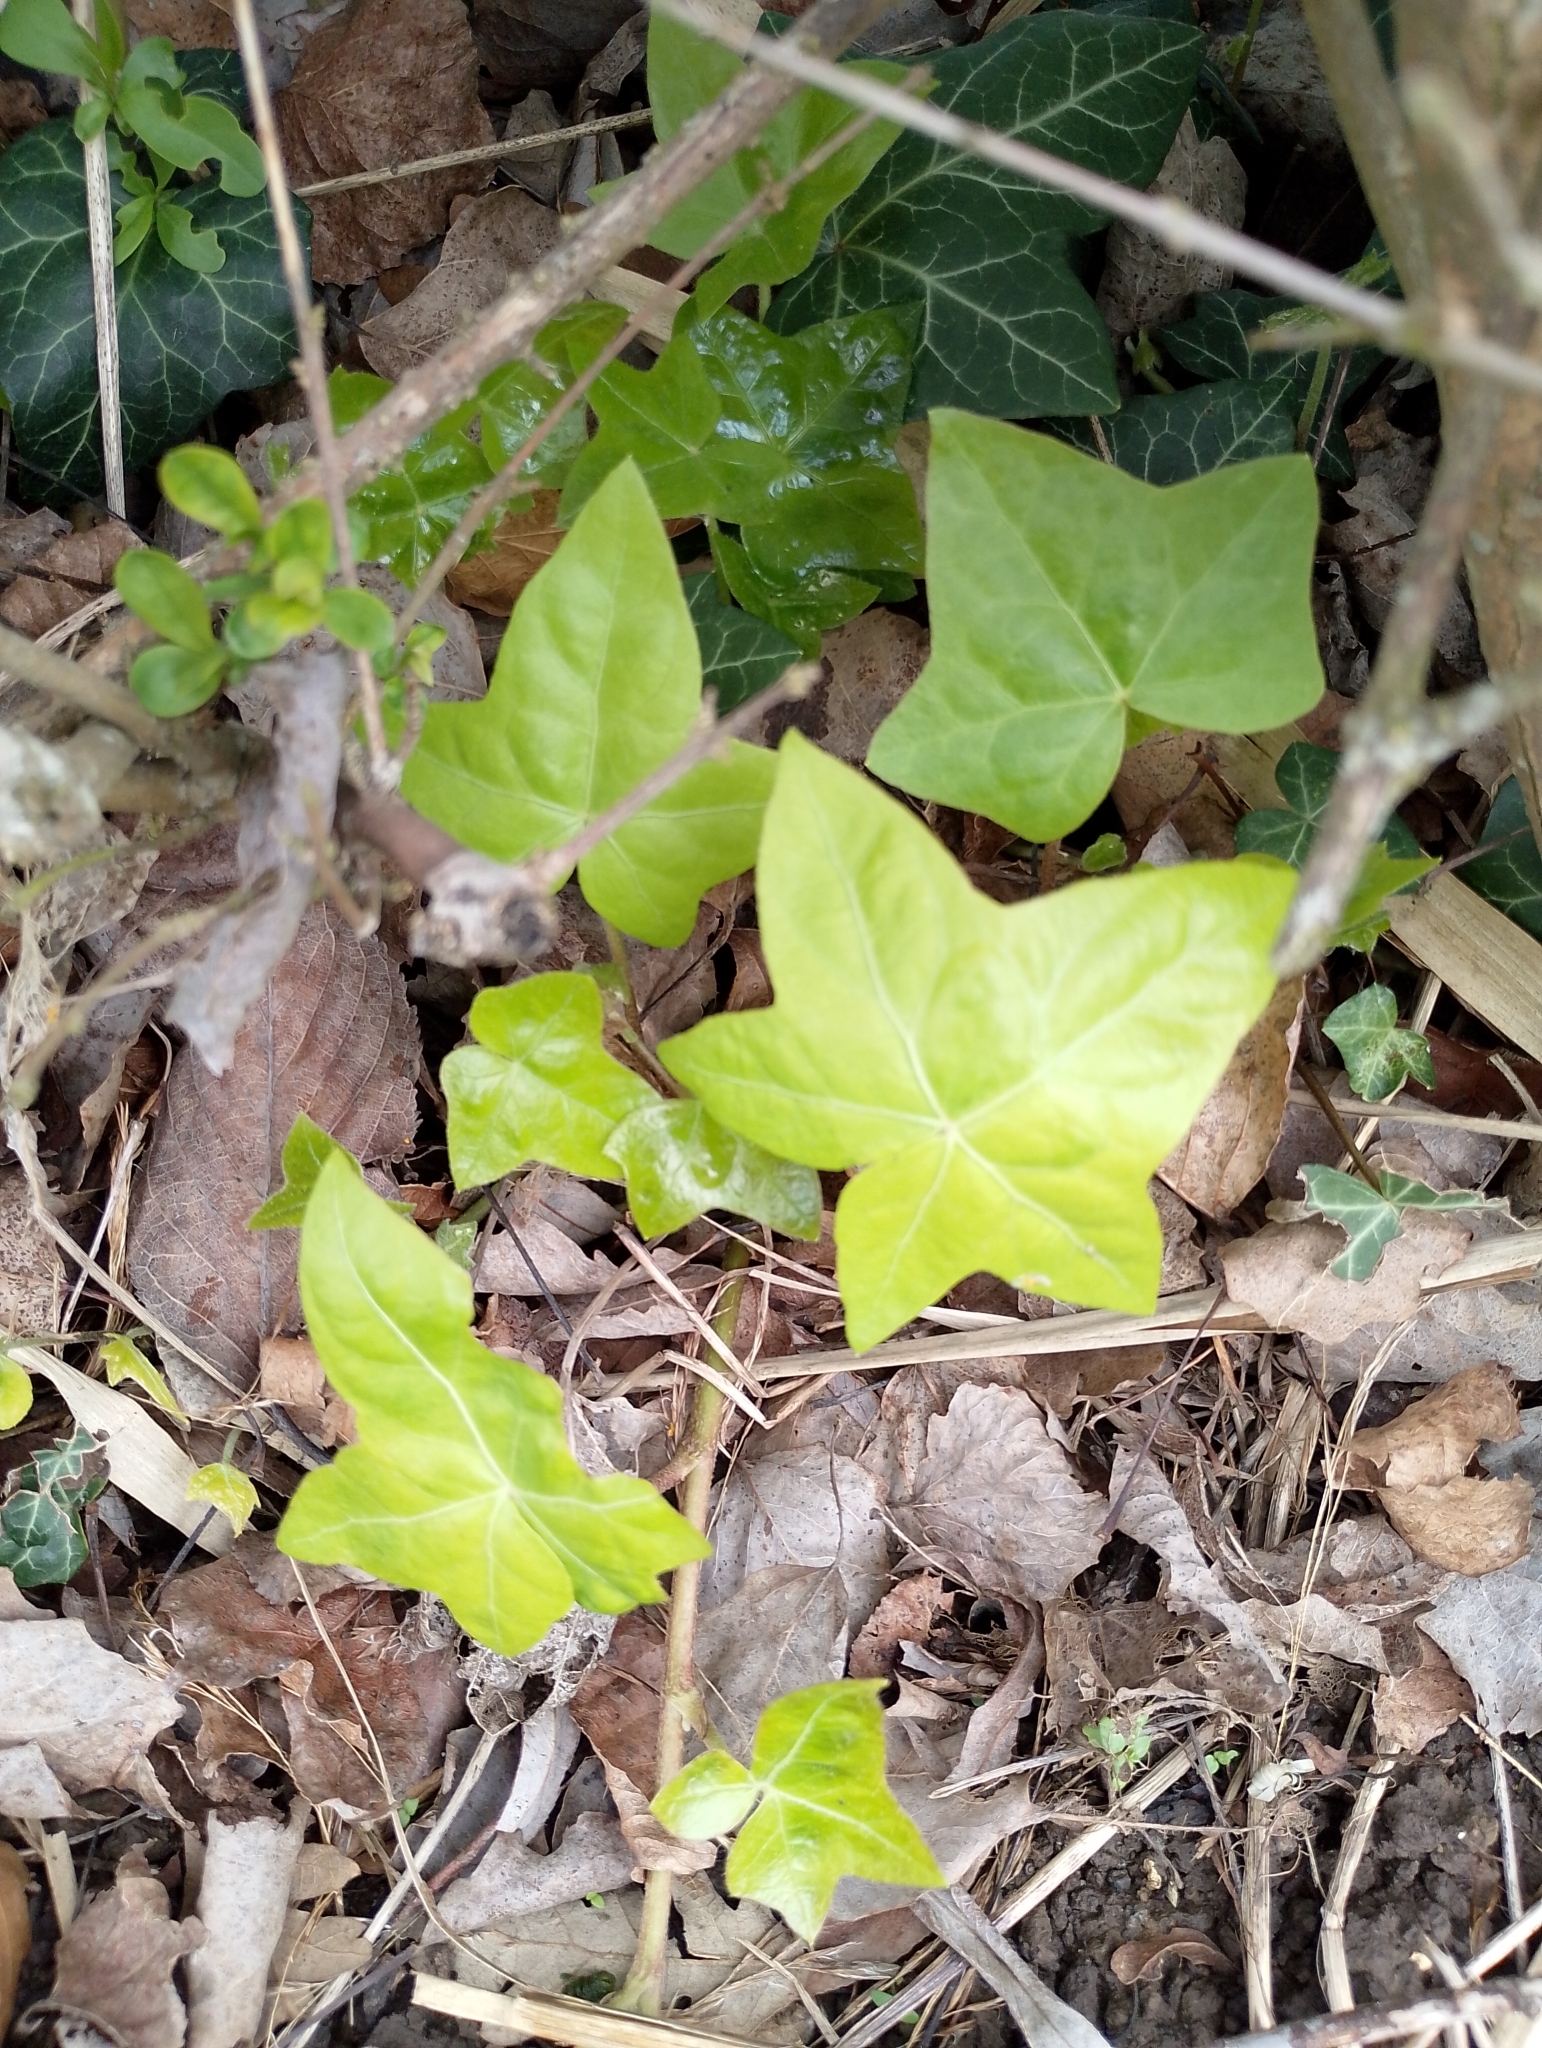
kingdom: Plantae
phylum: Tracheophyta
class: Magnoliopsida
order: Apiales
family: Araliaceae
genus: Hedera
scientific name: Hedera helix
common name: Ivy
